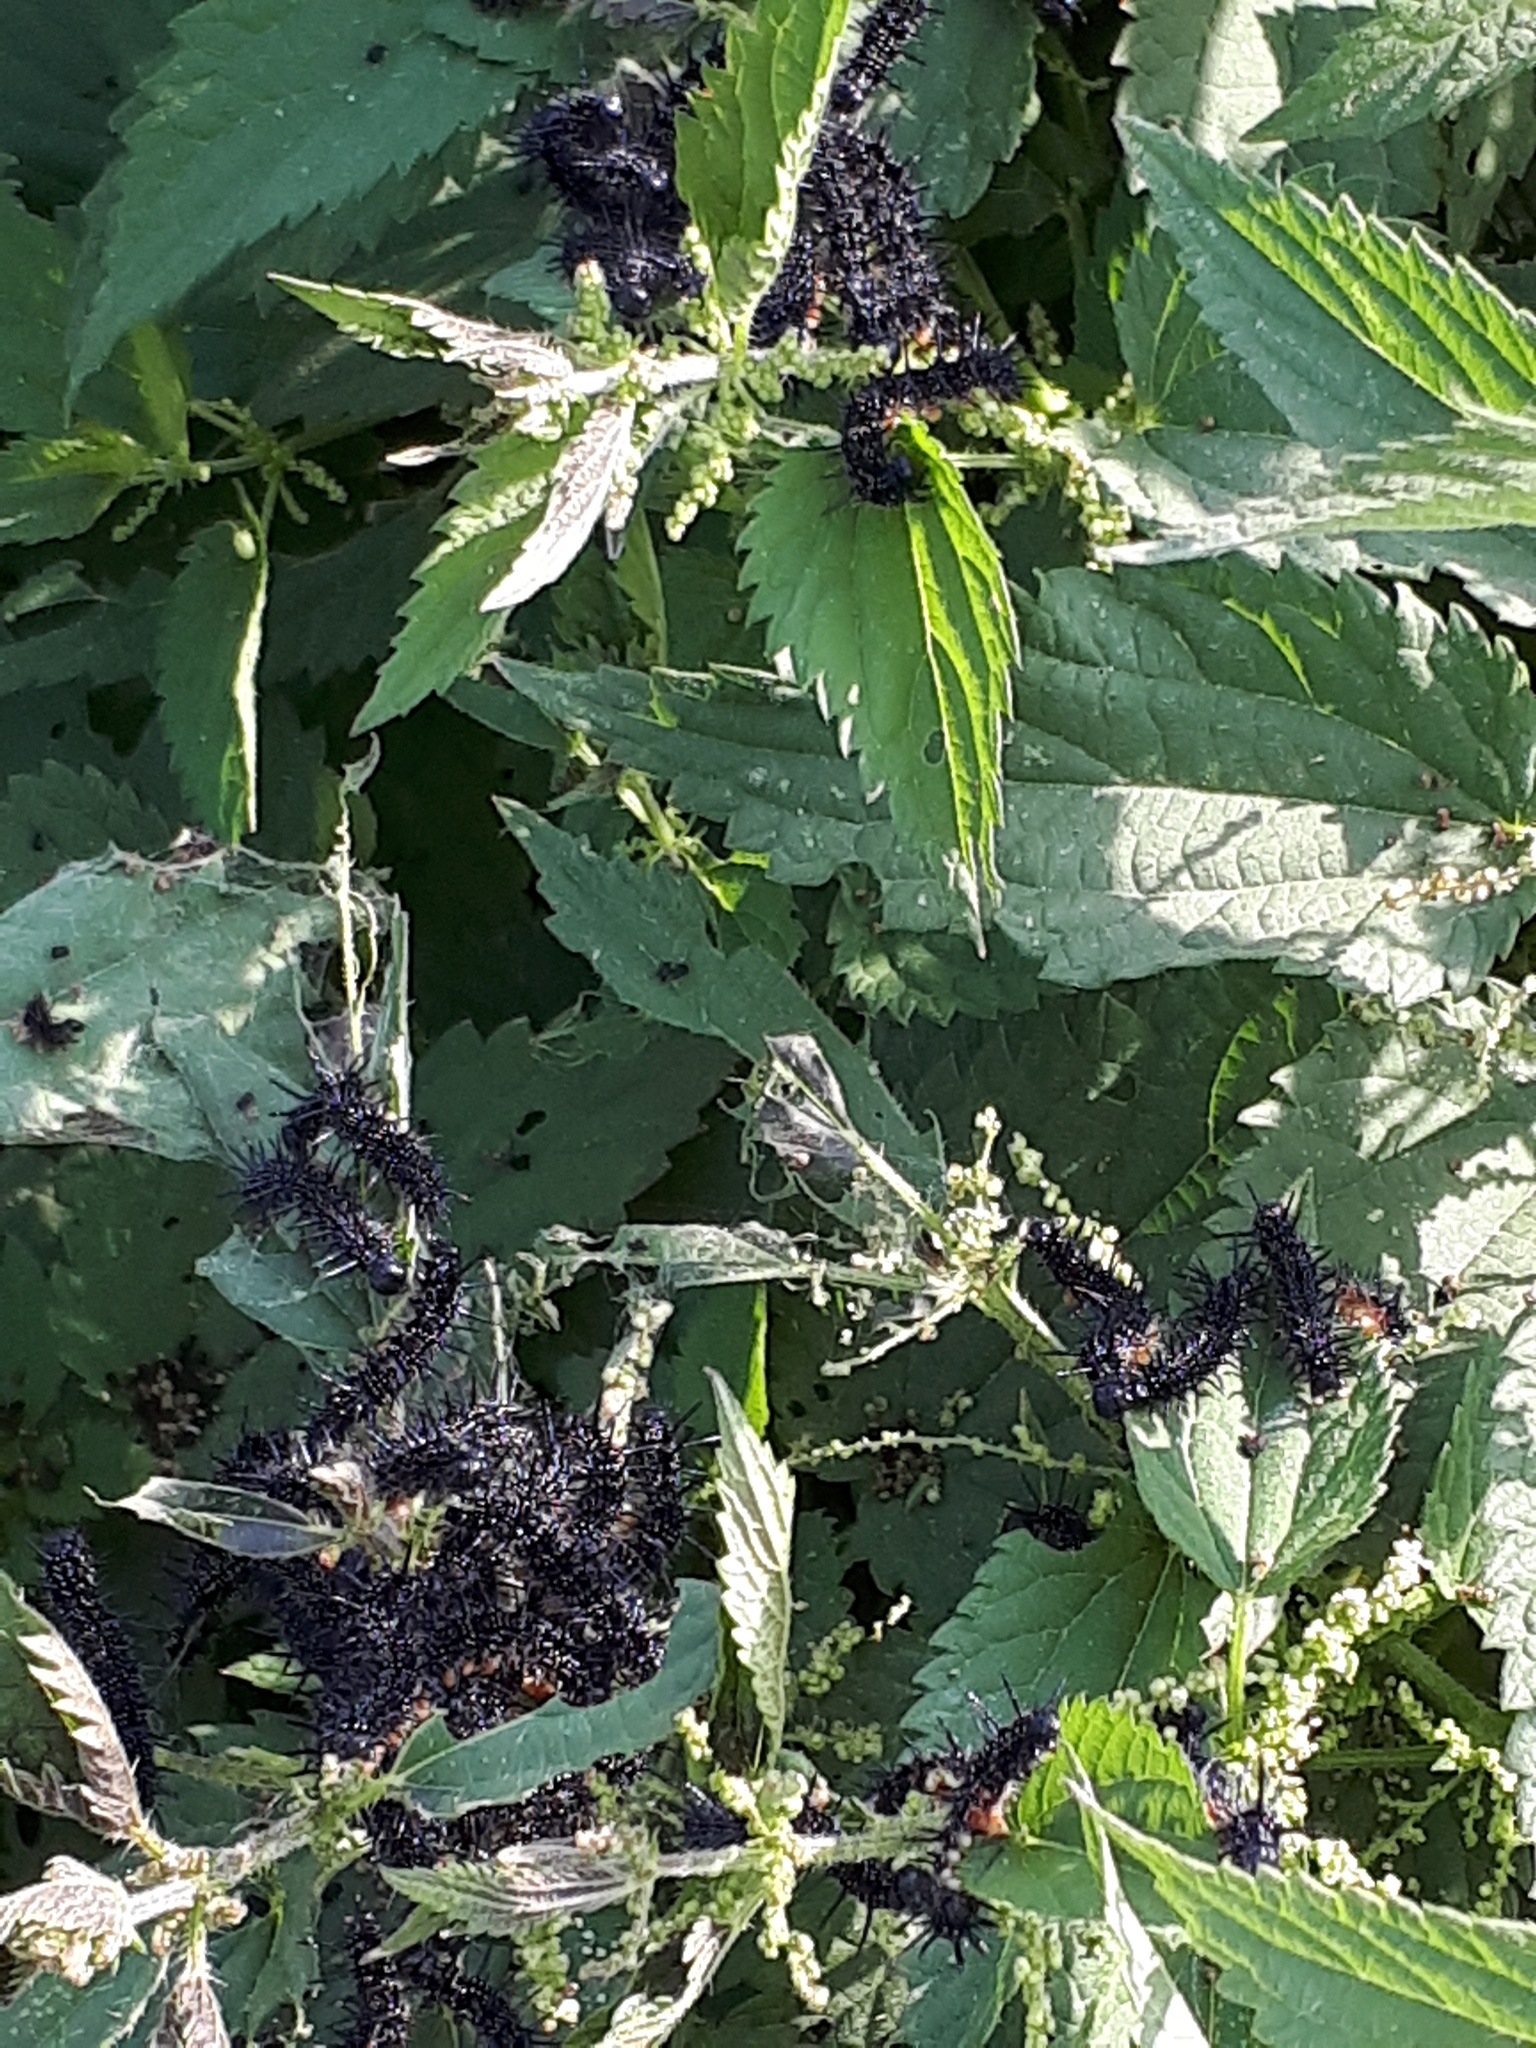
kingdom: Animalia
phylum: Arthropoda
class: Insecta
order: Lepidoptera
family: Nymphalidae
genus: Aglais
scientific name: Aglais io
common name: Peacock
